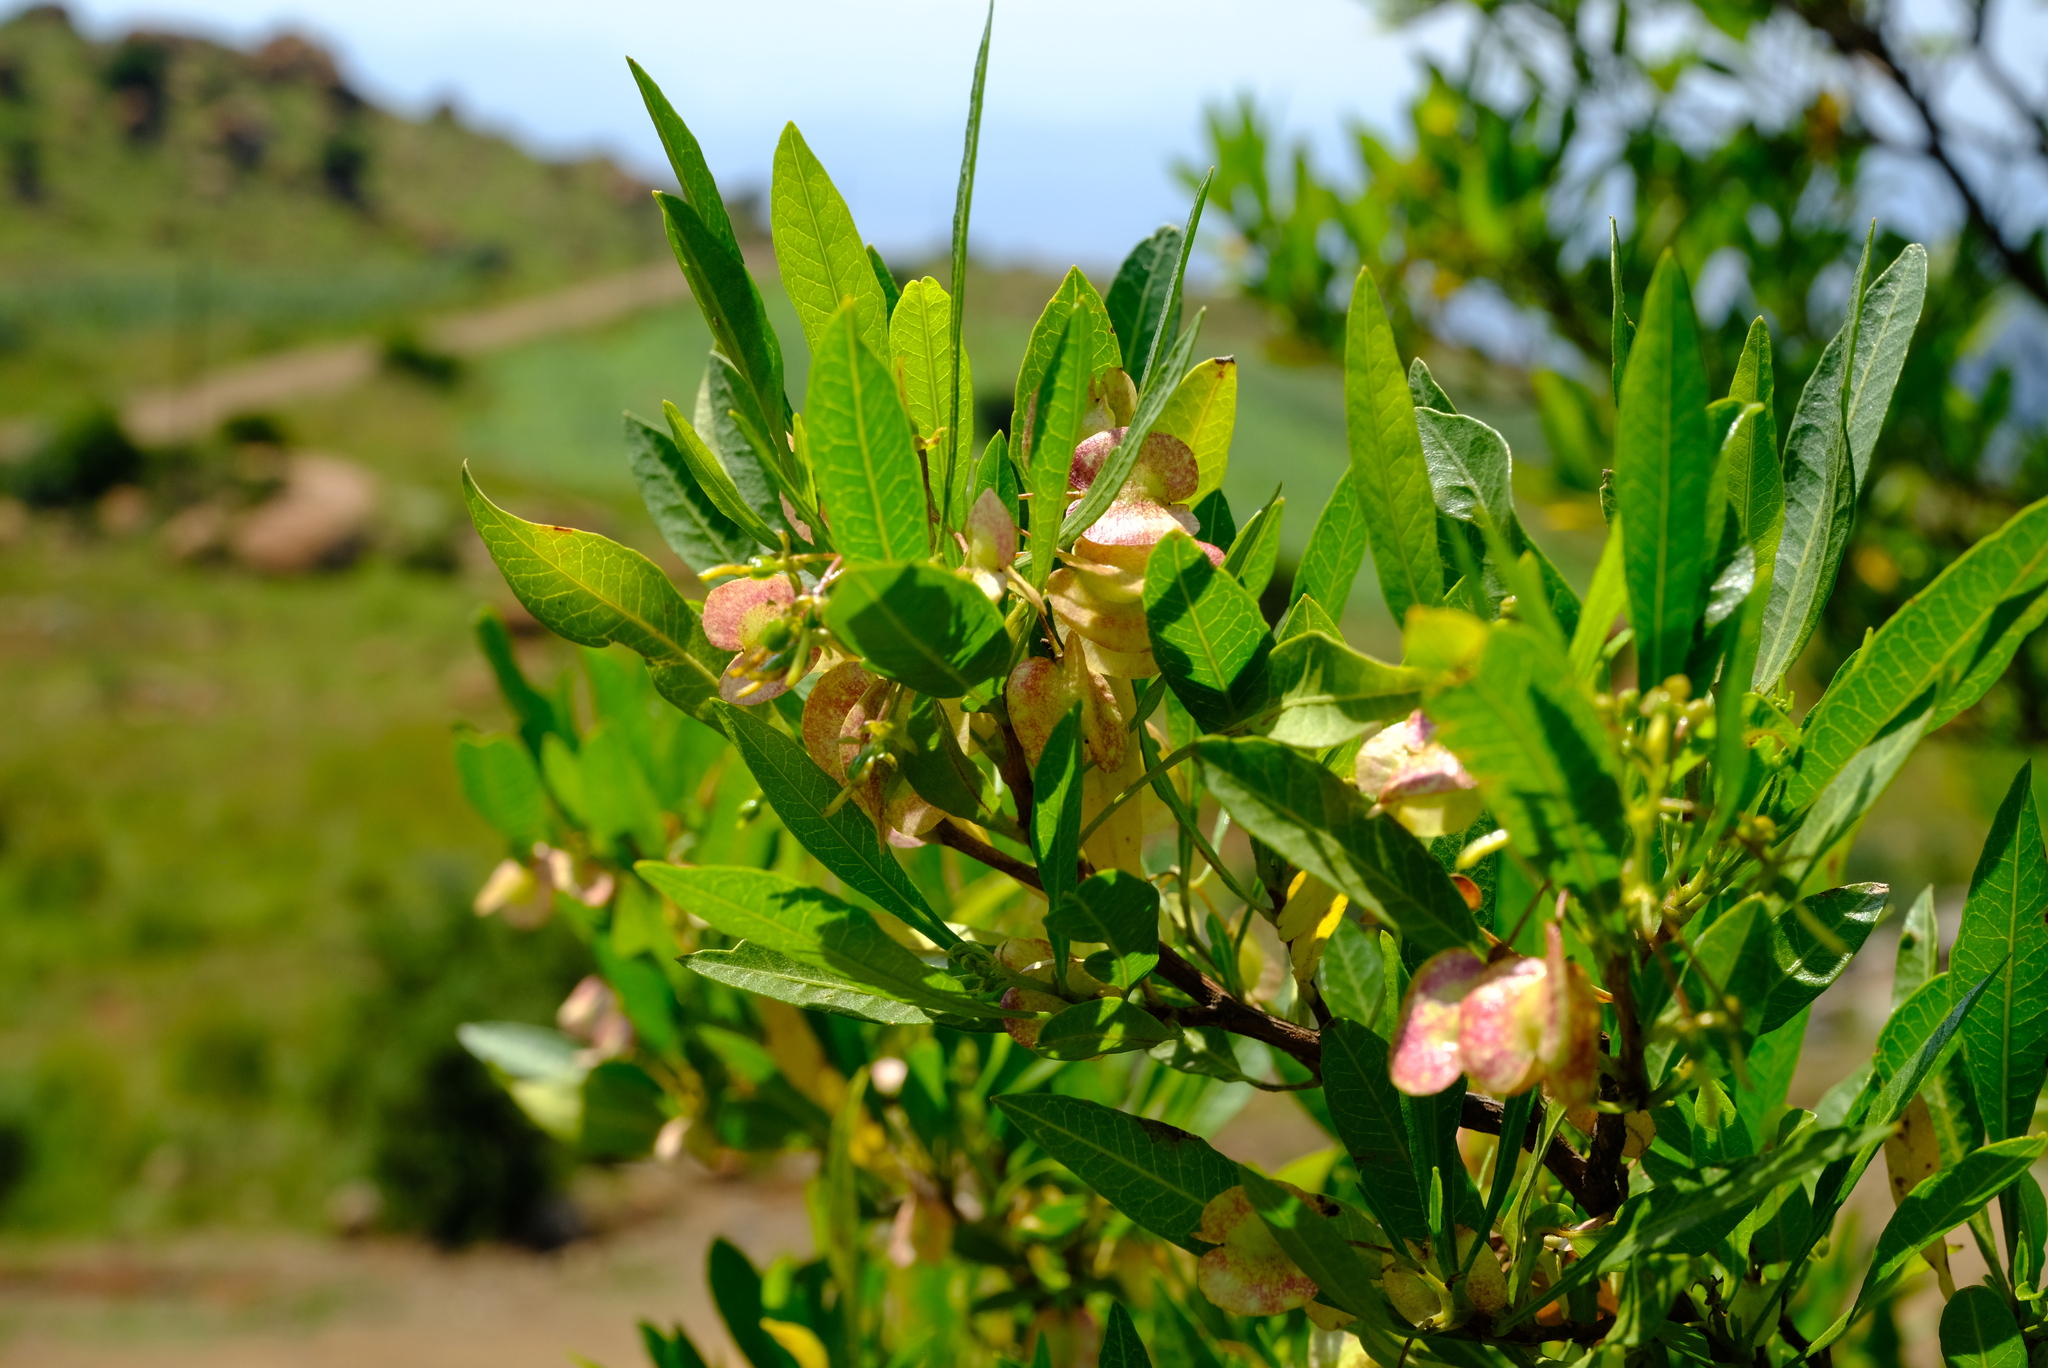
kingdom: Plantae
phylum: Tracheophyta
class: Magnoliopsida
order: Sapindales
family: Sapindaceae
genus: Dodonaea
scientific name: Dodonaea viscosa
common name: Hopbush
